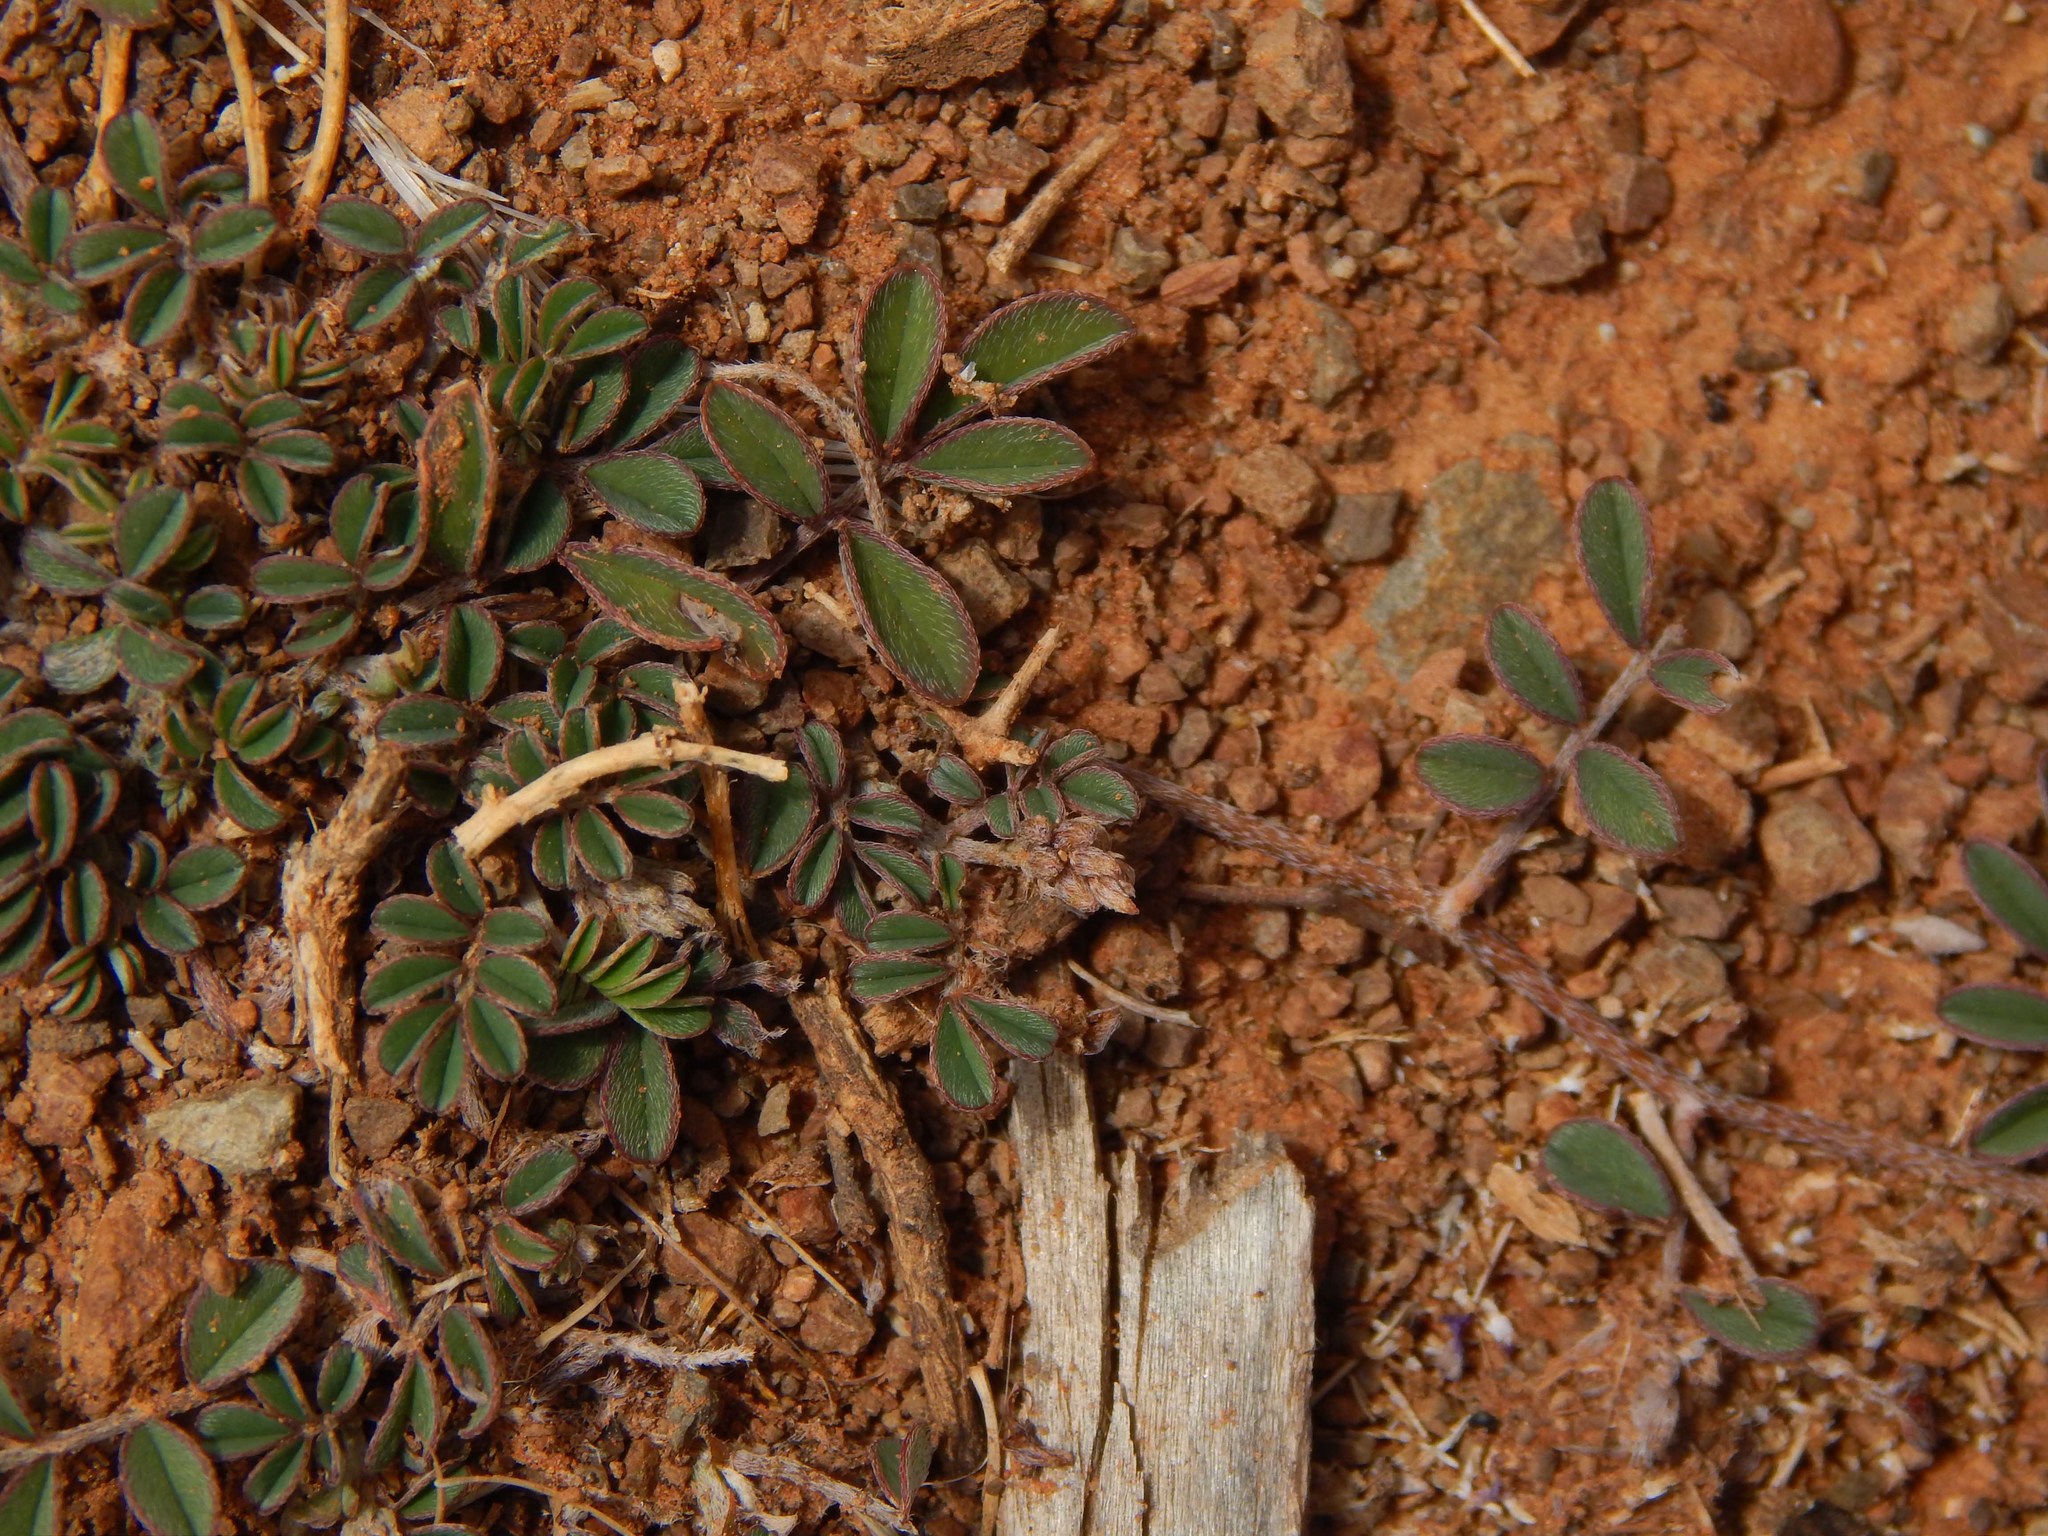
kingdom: Plantae
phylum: Tracheophyta
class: Magnoliopsida
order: Fabales
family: Fabaceae
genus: Indigofera
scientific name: Indigofera alternans
